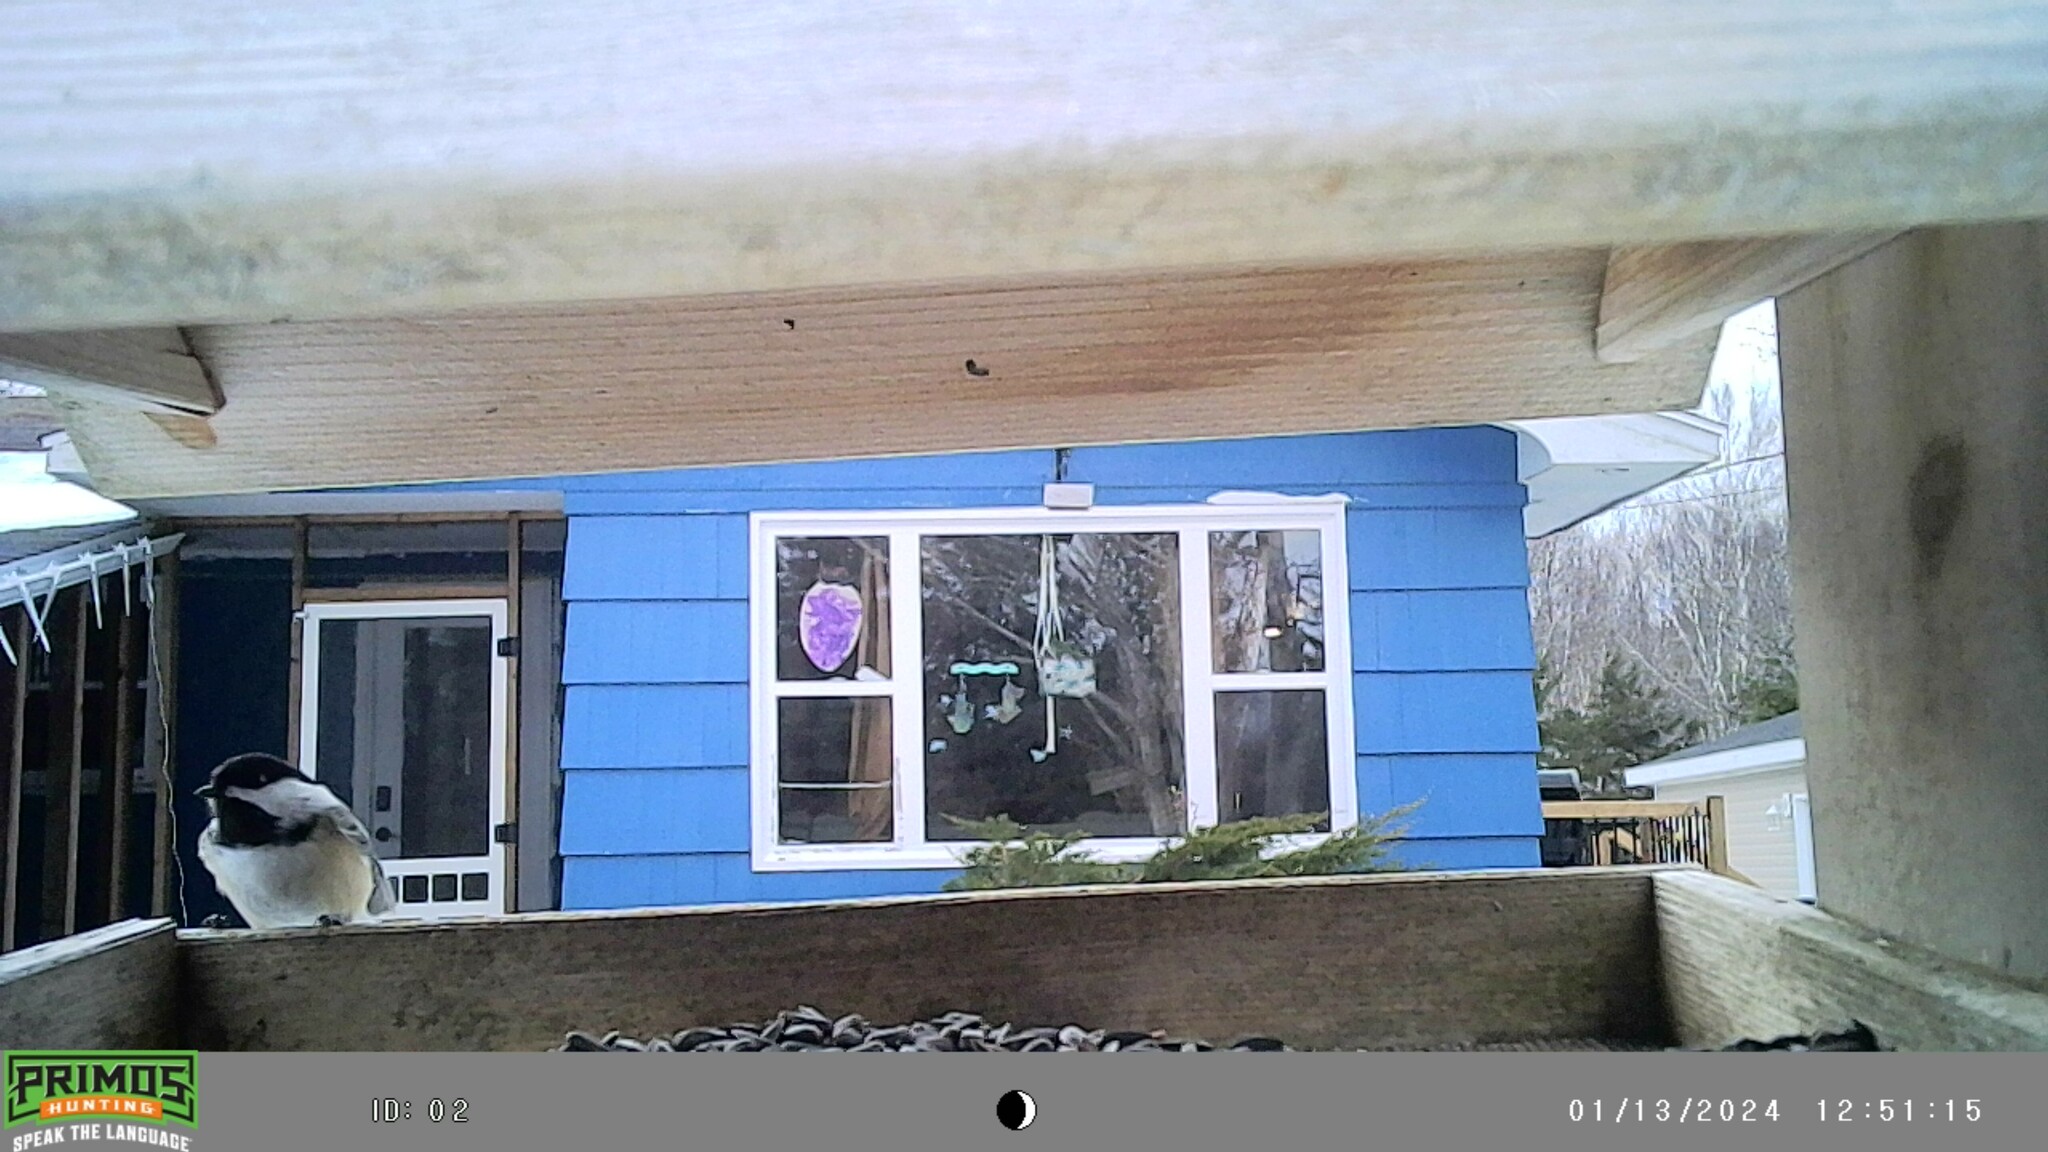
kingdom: Animalia
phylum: Chordata
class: Aves
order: Passeriformes
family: Paridae
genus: Poecile
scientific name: Poecile atricapillus
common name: Black-capped chickadee
